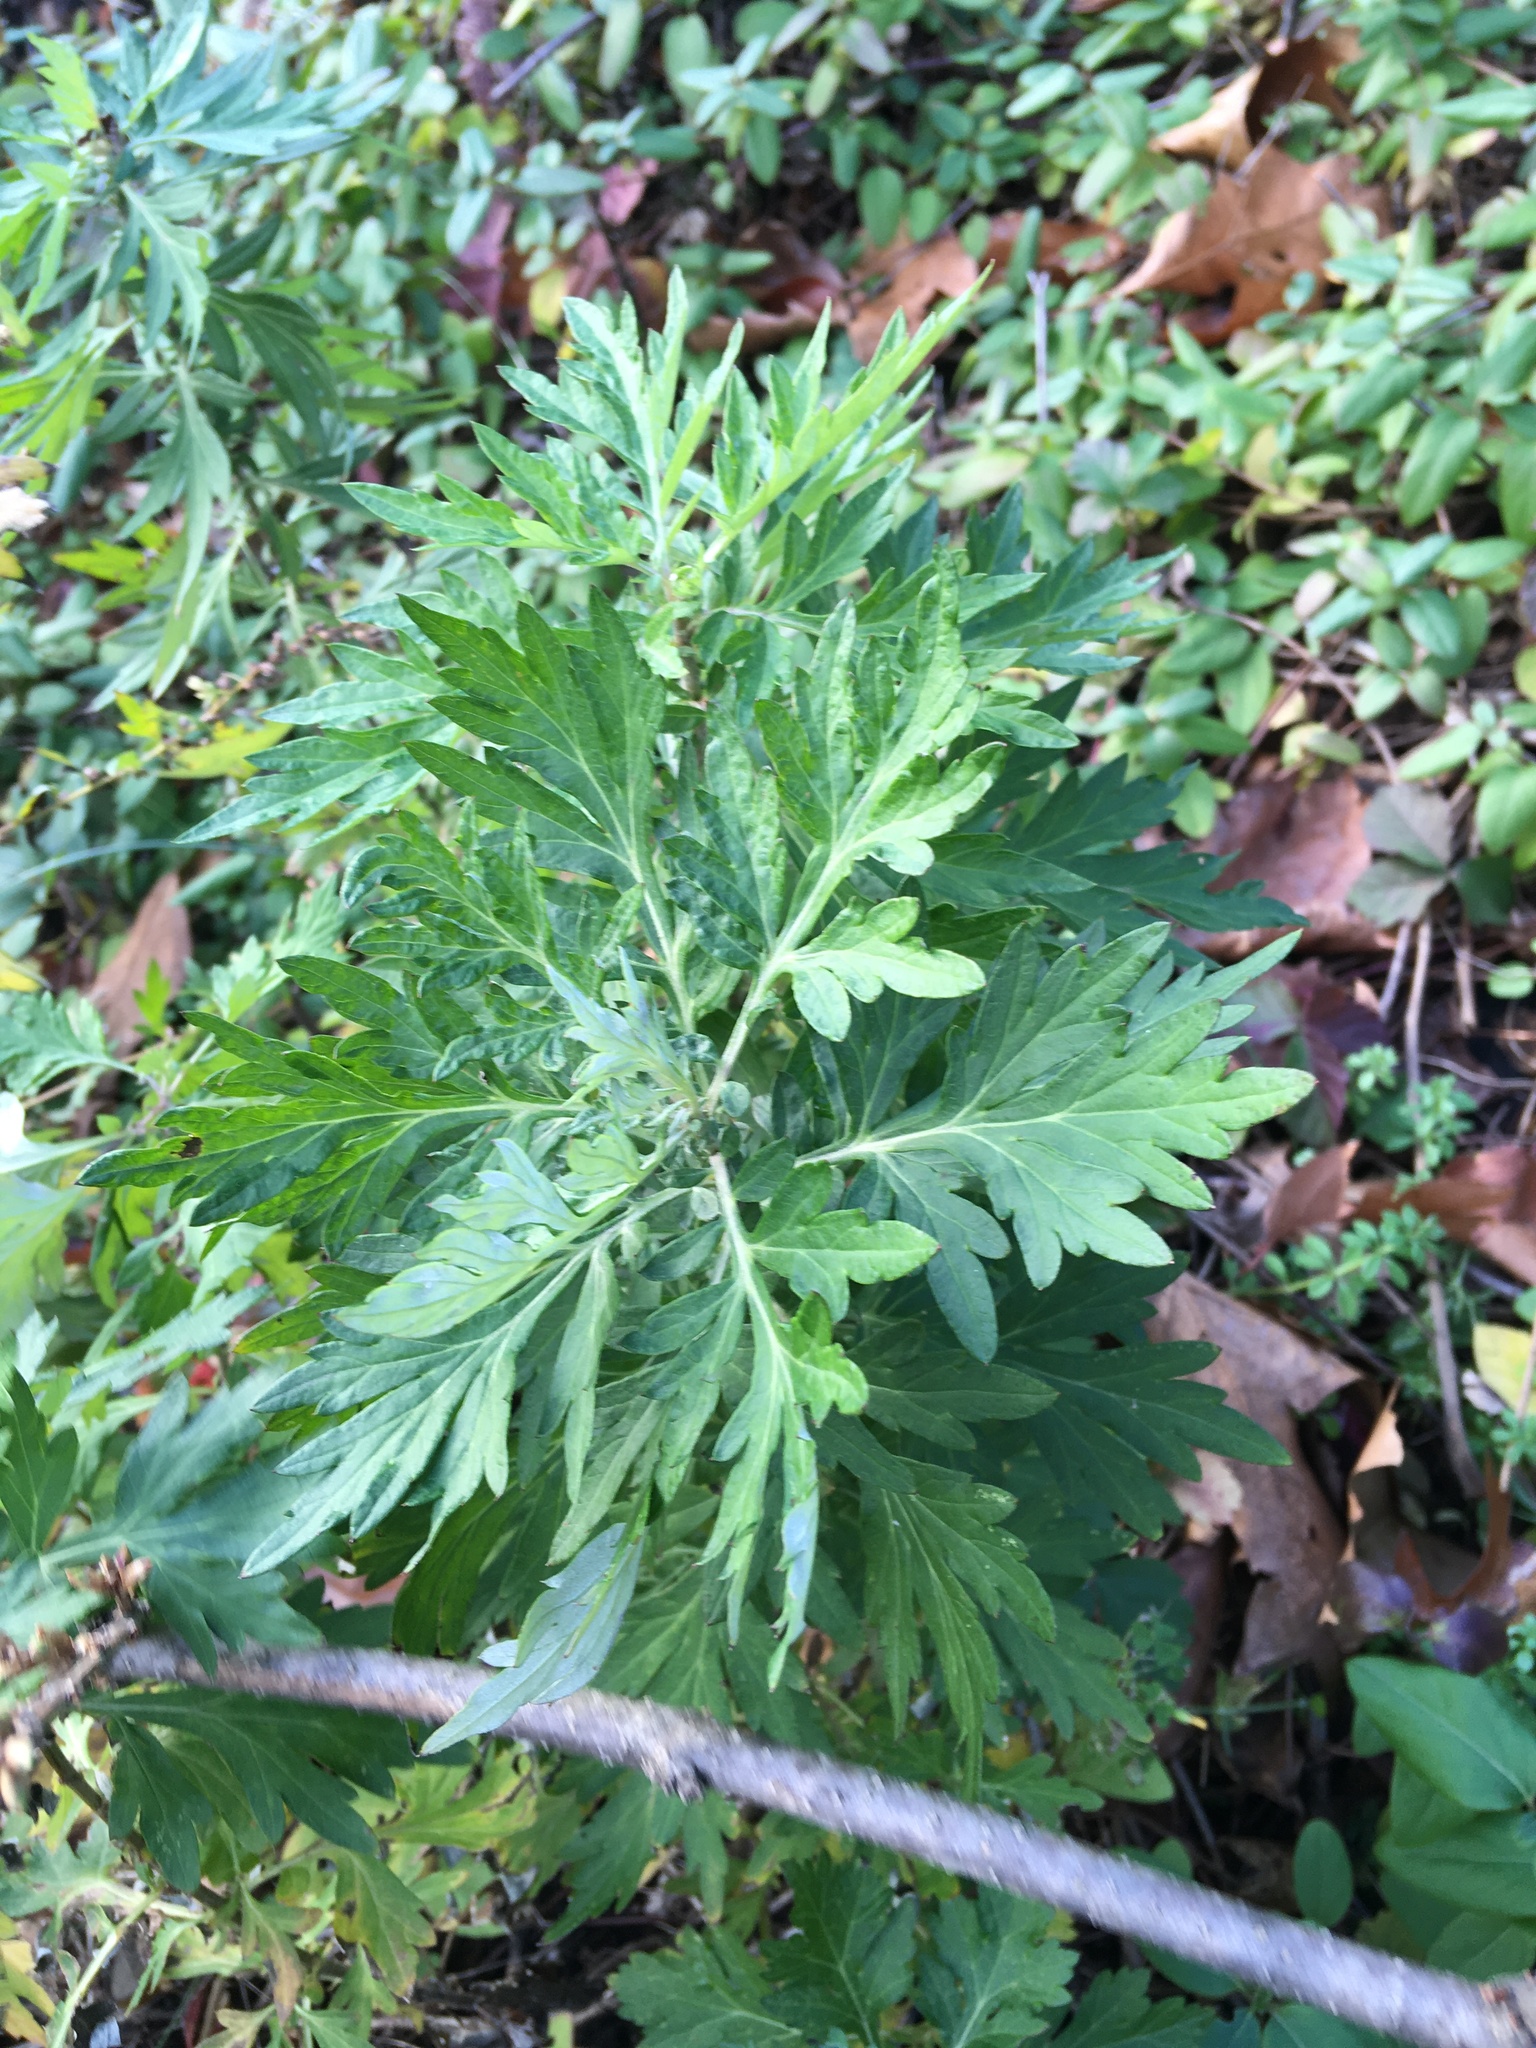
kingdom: Plantae
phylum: Tracheophyta
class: Magnoliopsida
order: Asterales
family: Asteraceae
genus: Artemisia
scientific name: Artemisia vulgaris
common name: Mugwort
